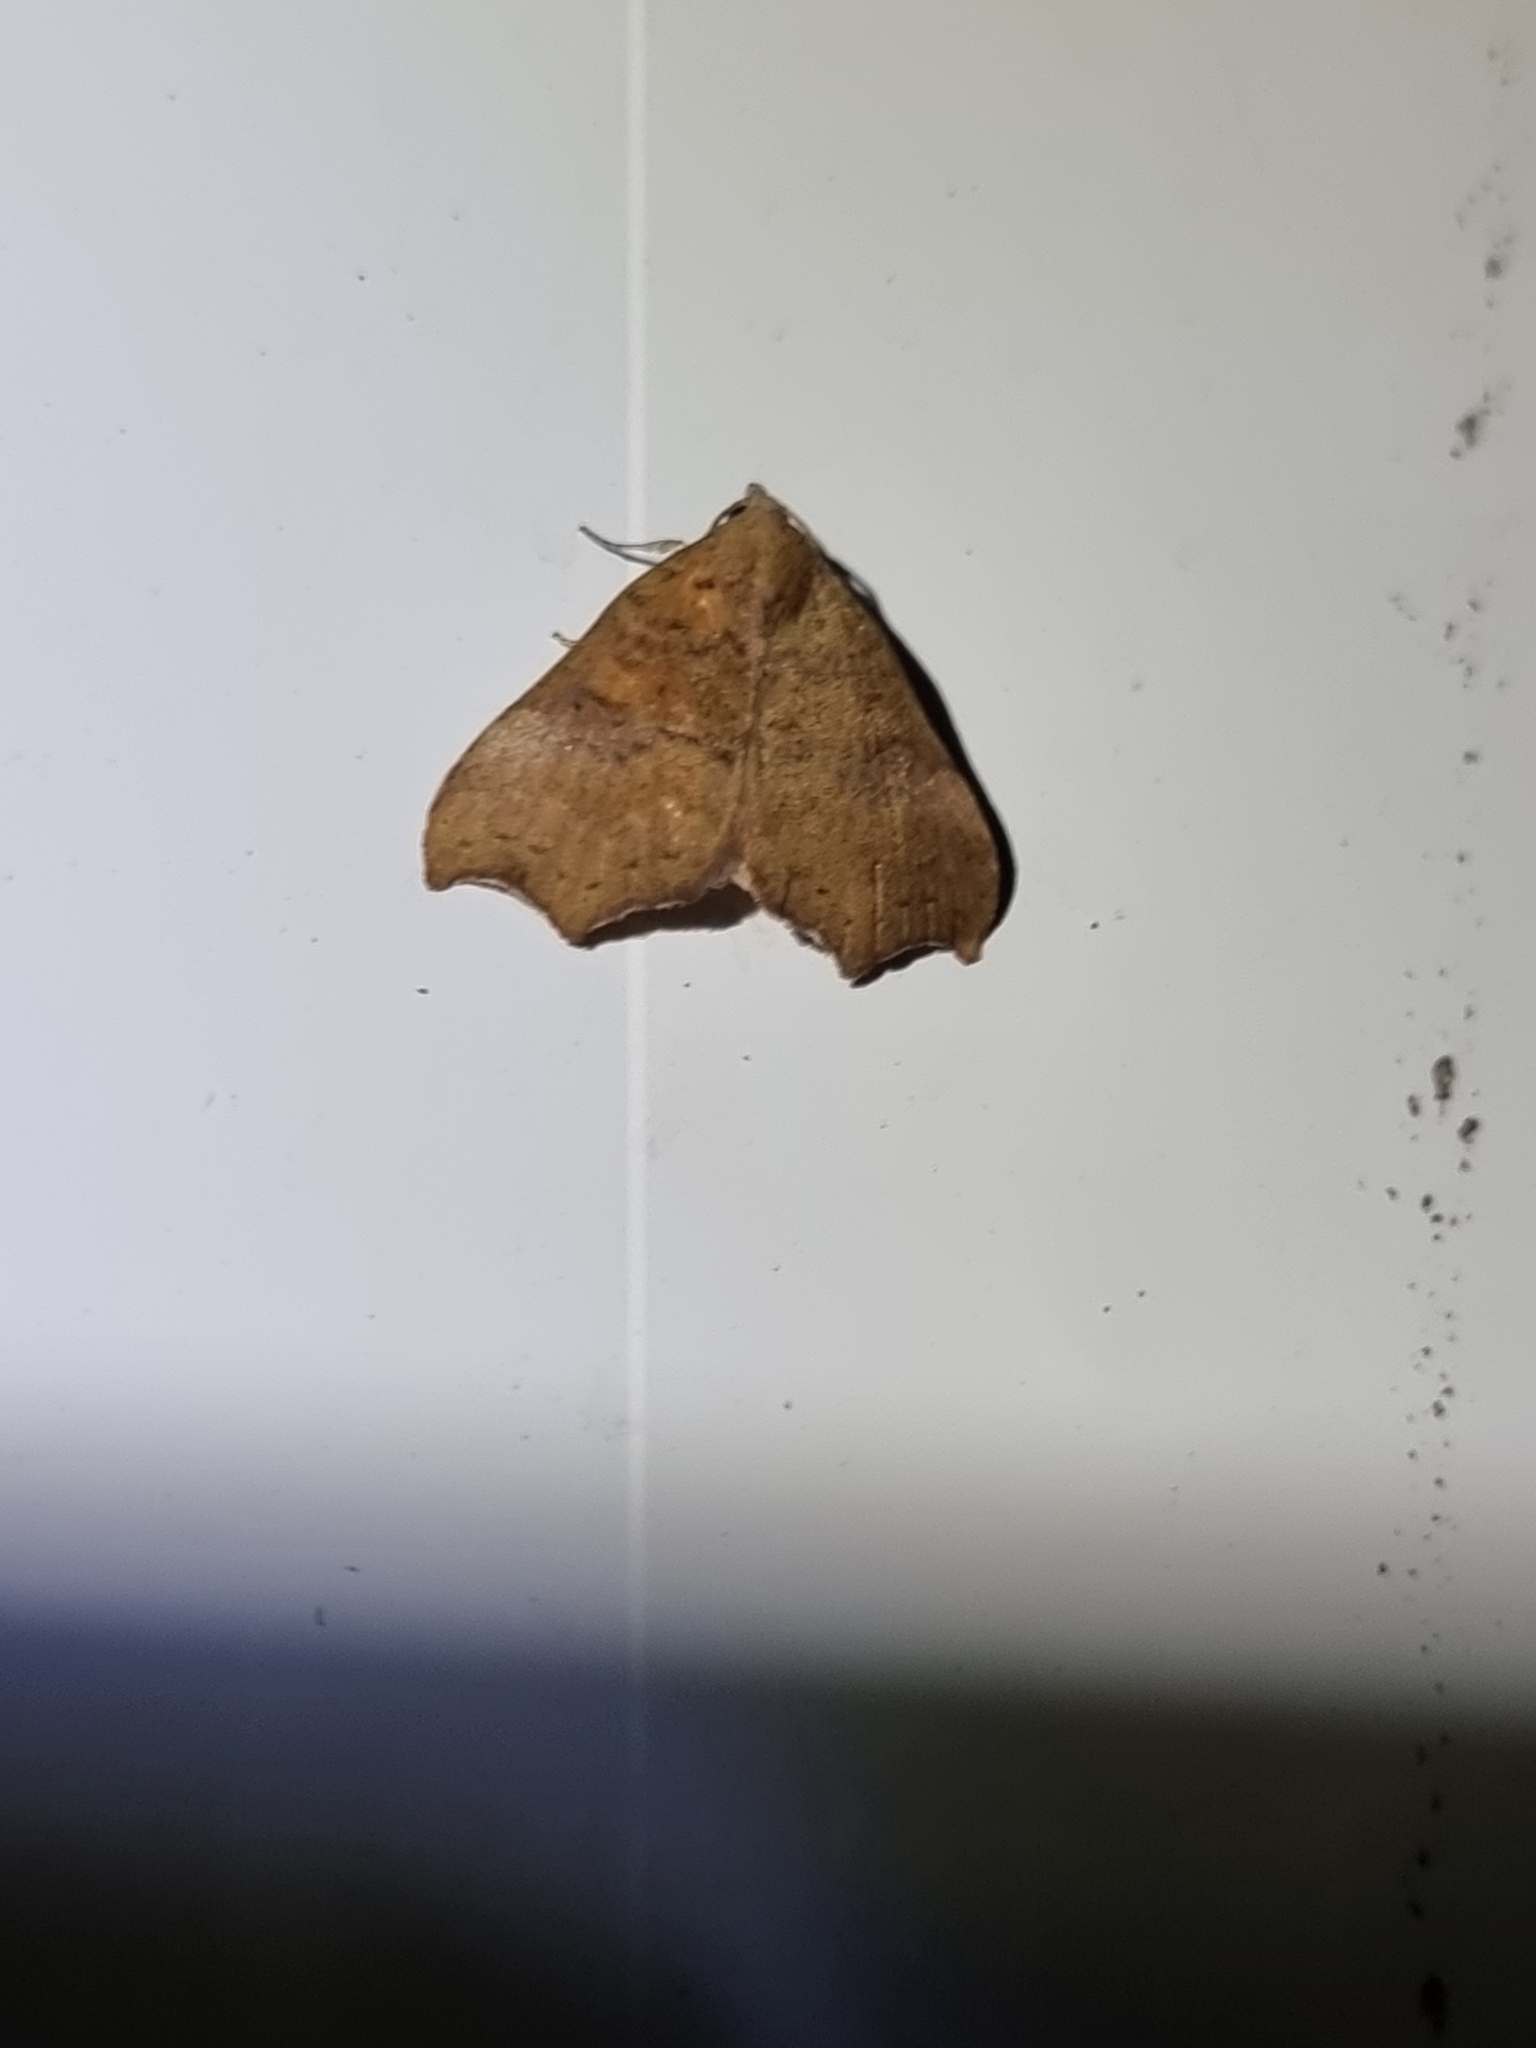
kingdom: Animalia
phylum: Arthropoda
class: Insecta
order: Lepidoptera
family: Erebidae
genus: Axiocteta
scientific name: Axiocteta oenoplex
